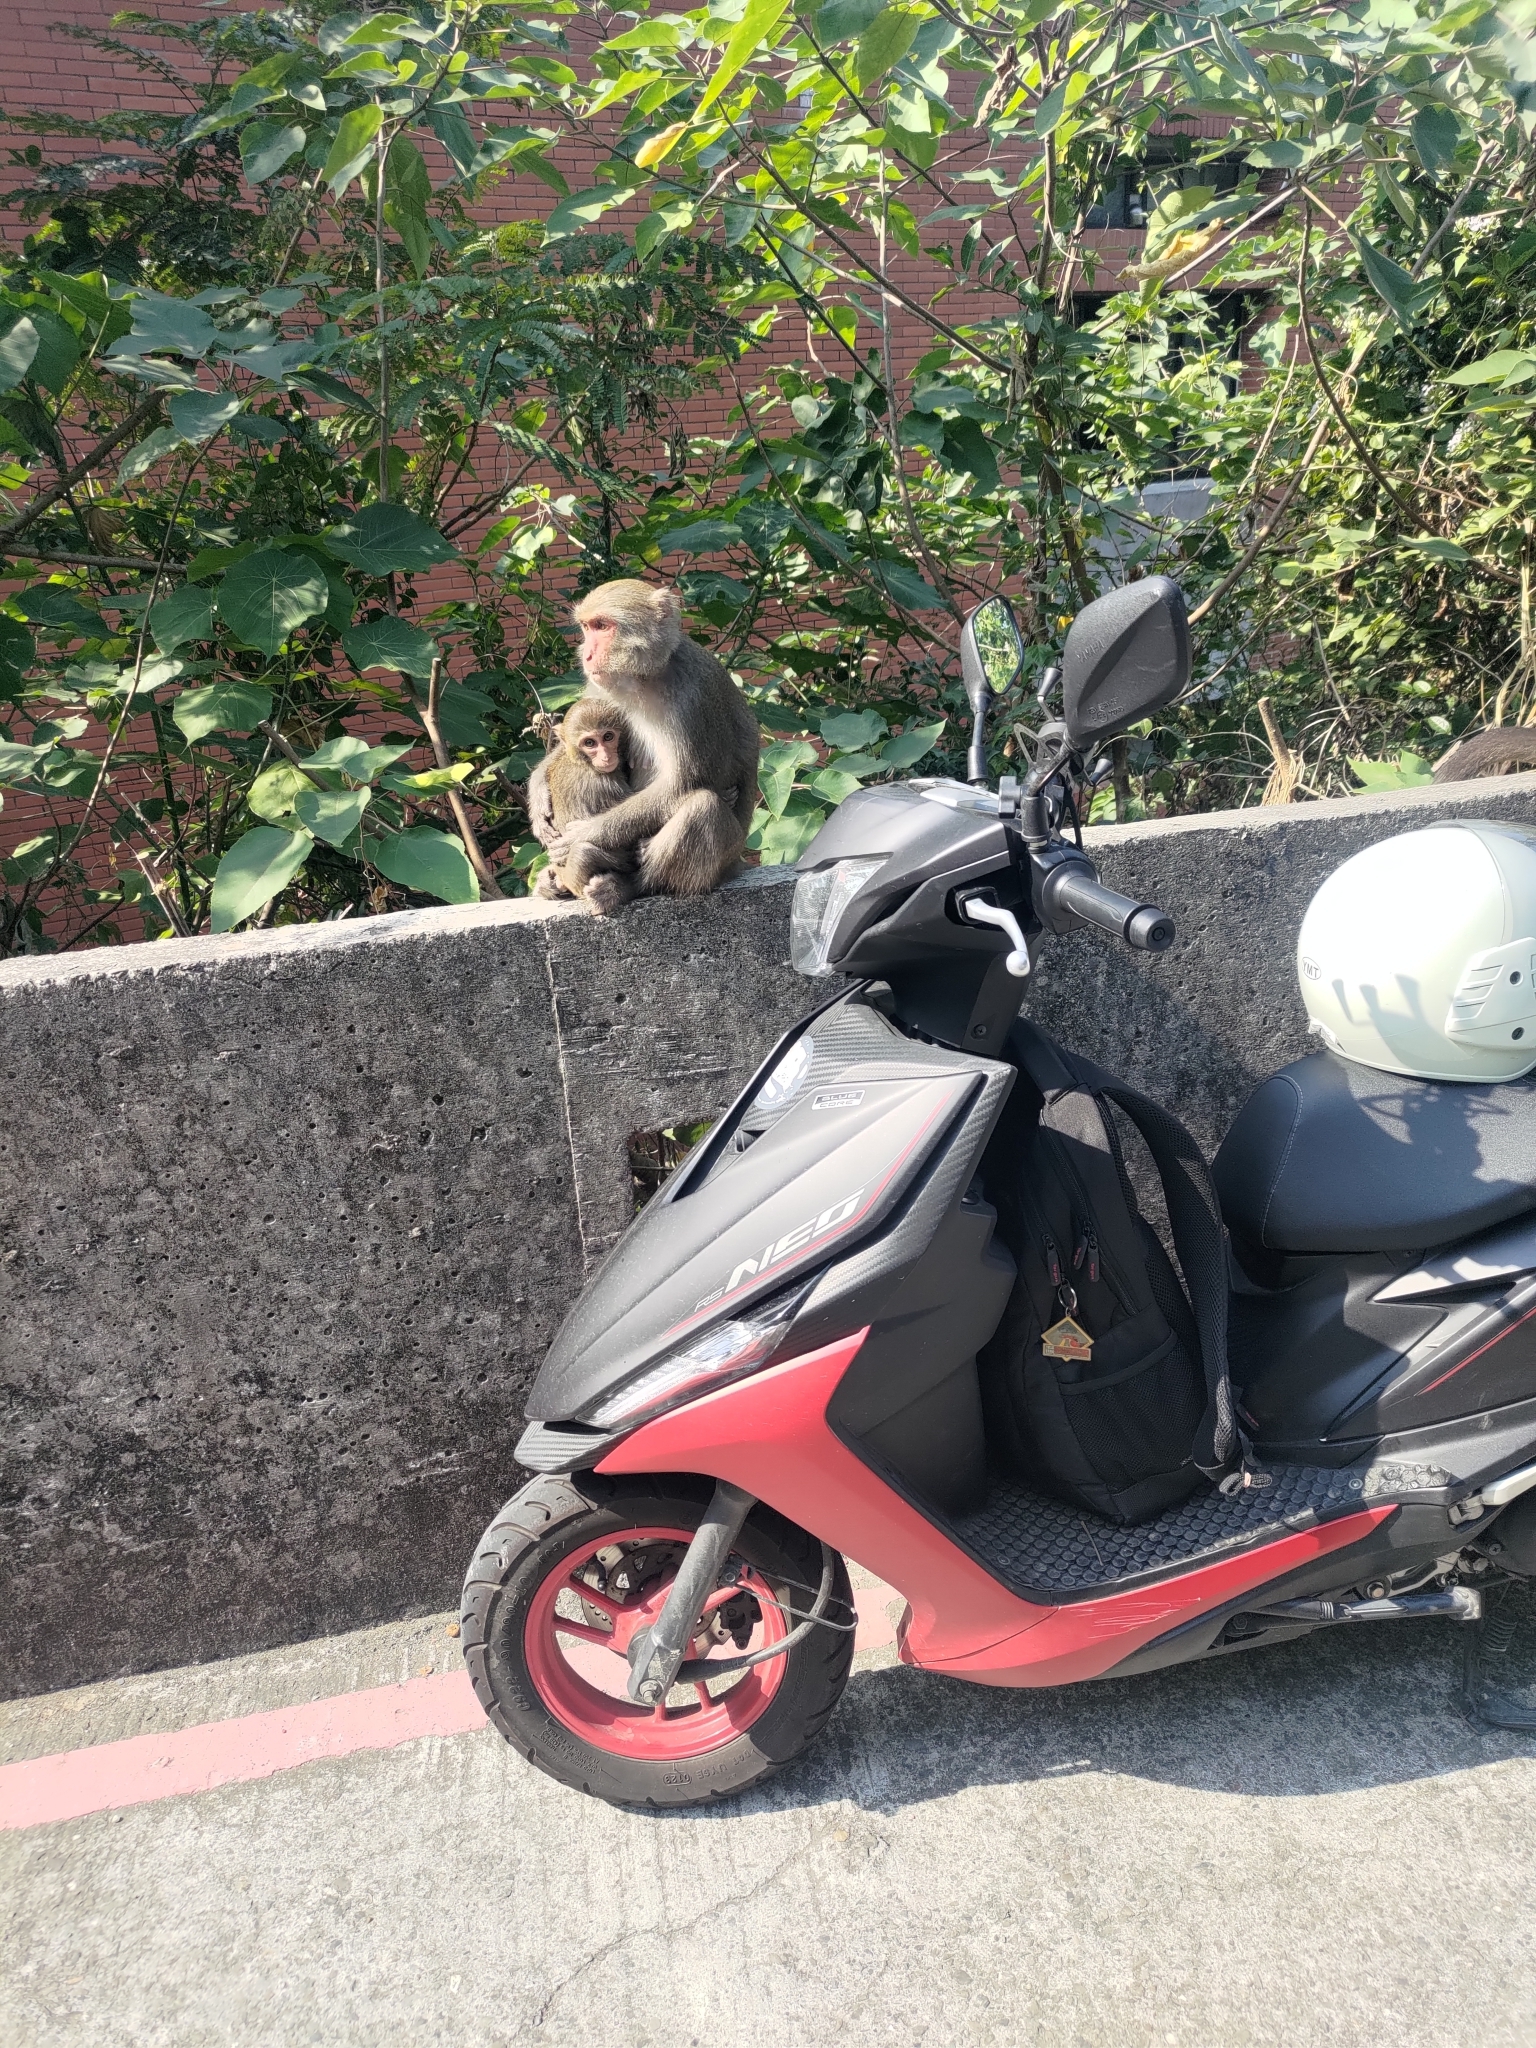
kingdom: Animalia
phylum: Chordata
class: Mammalia
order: Primates
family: Cercopithecidae
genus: Macaca
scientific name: Macaca cyclopis
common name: Formosan rock macaque
